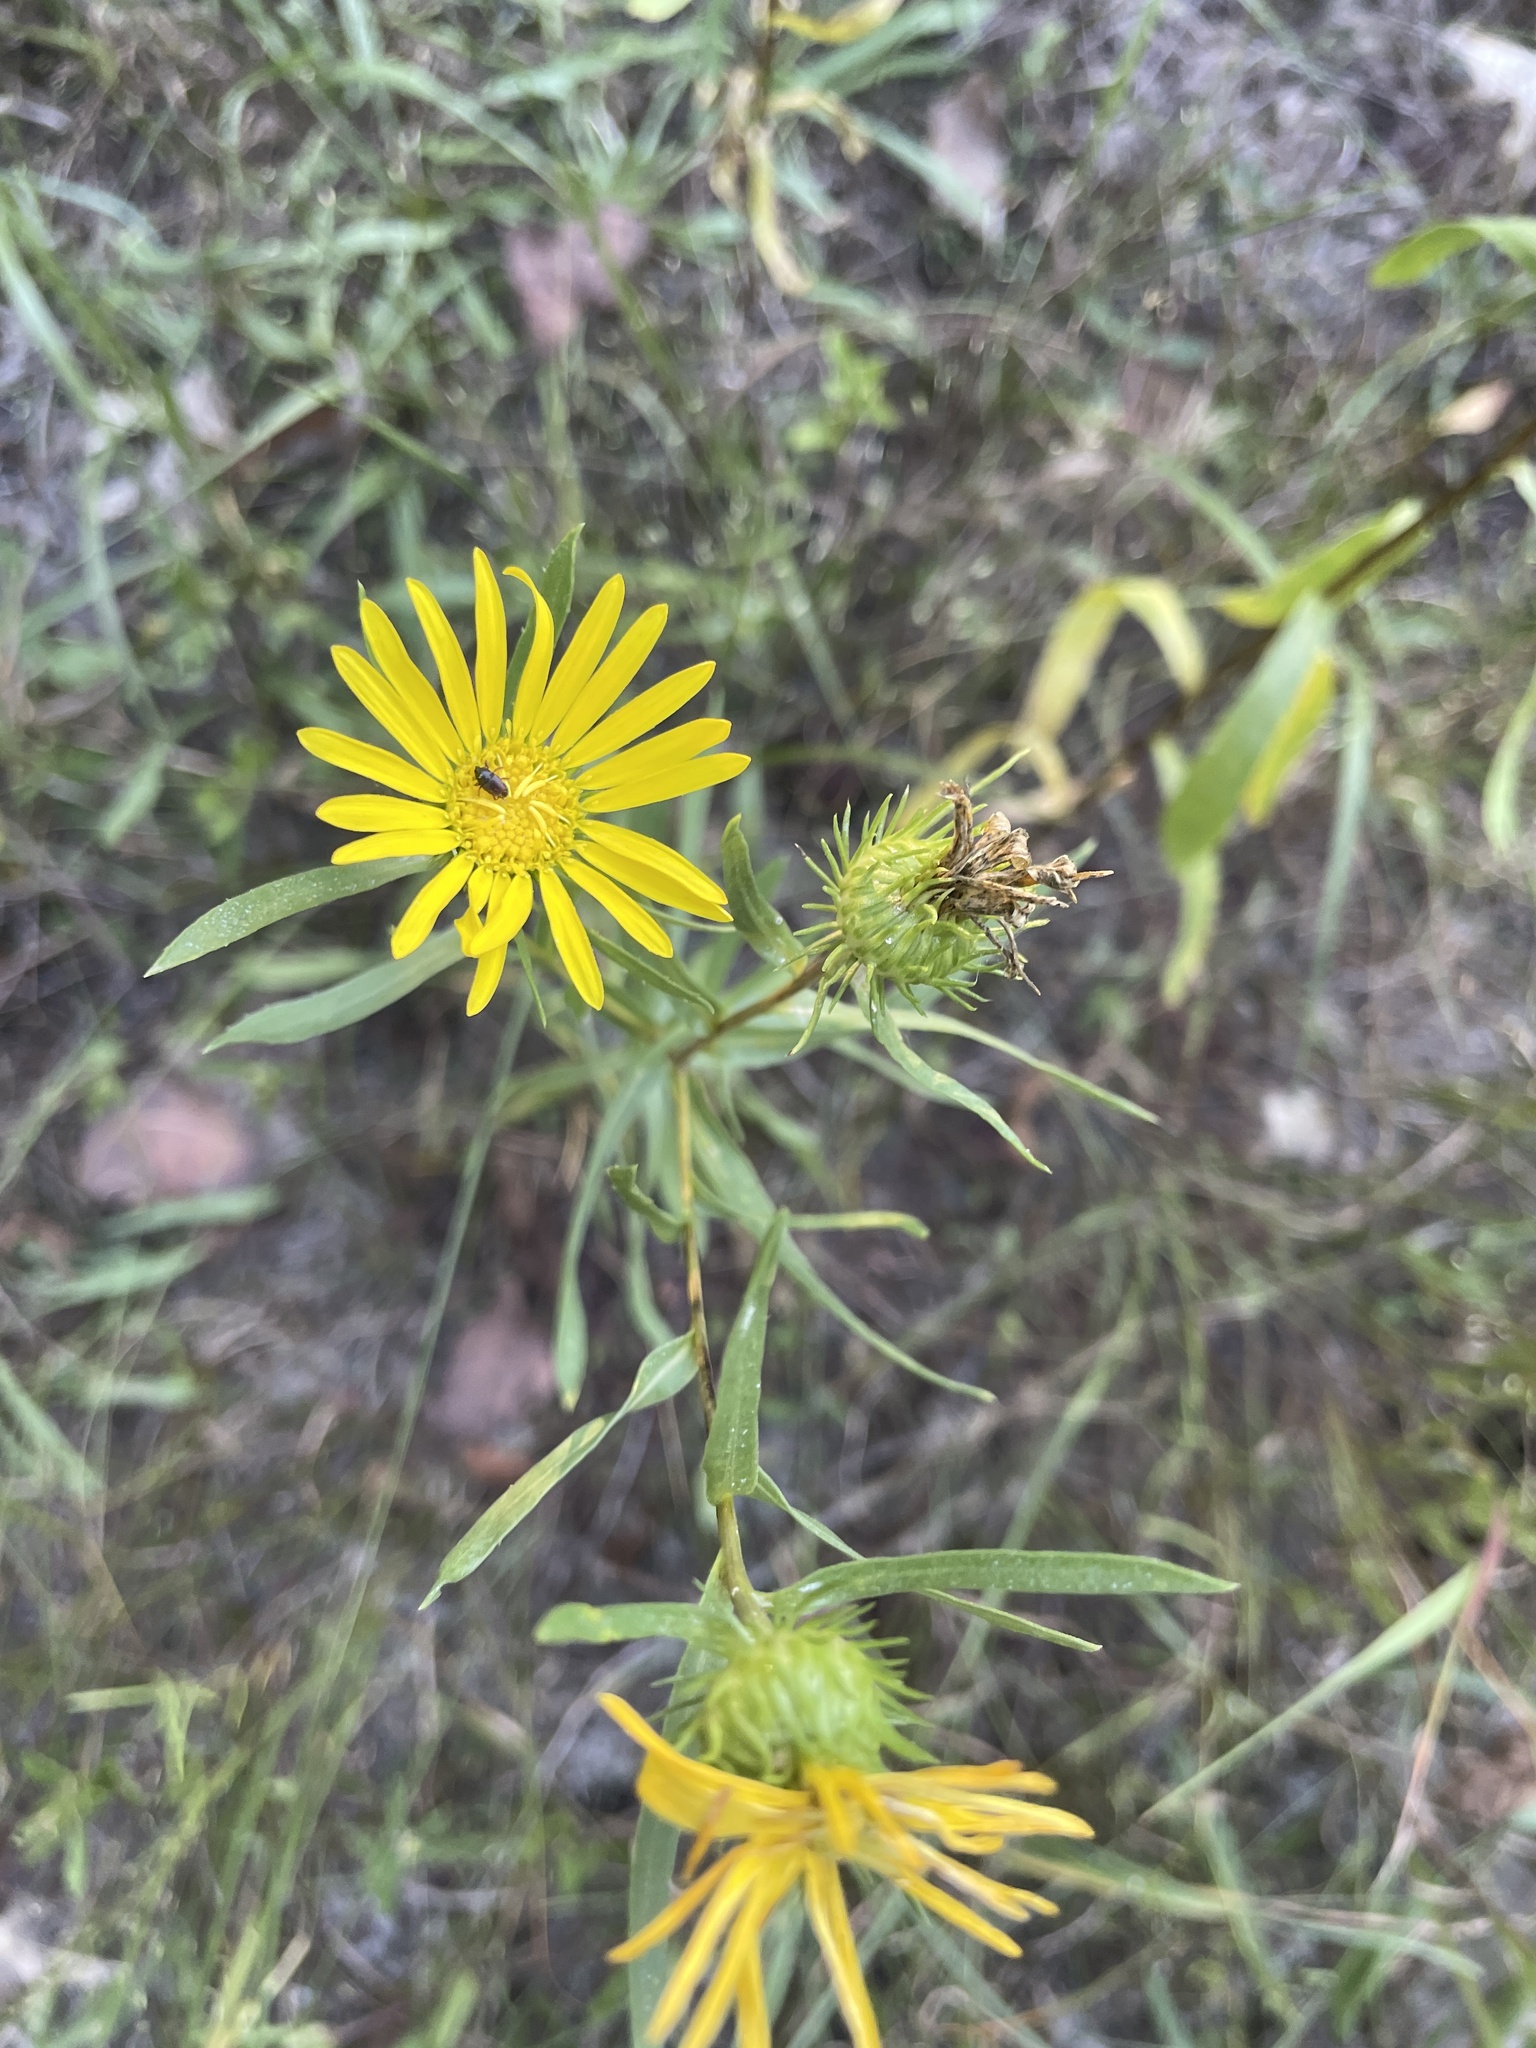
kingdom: Plantae
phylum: Tracheophyta
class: Magnoliopsida
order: Asterales
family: Asteraceae
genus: Grindelia
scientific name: Grindelia lanceolata
